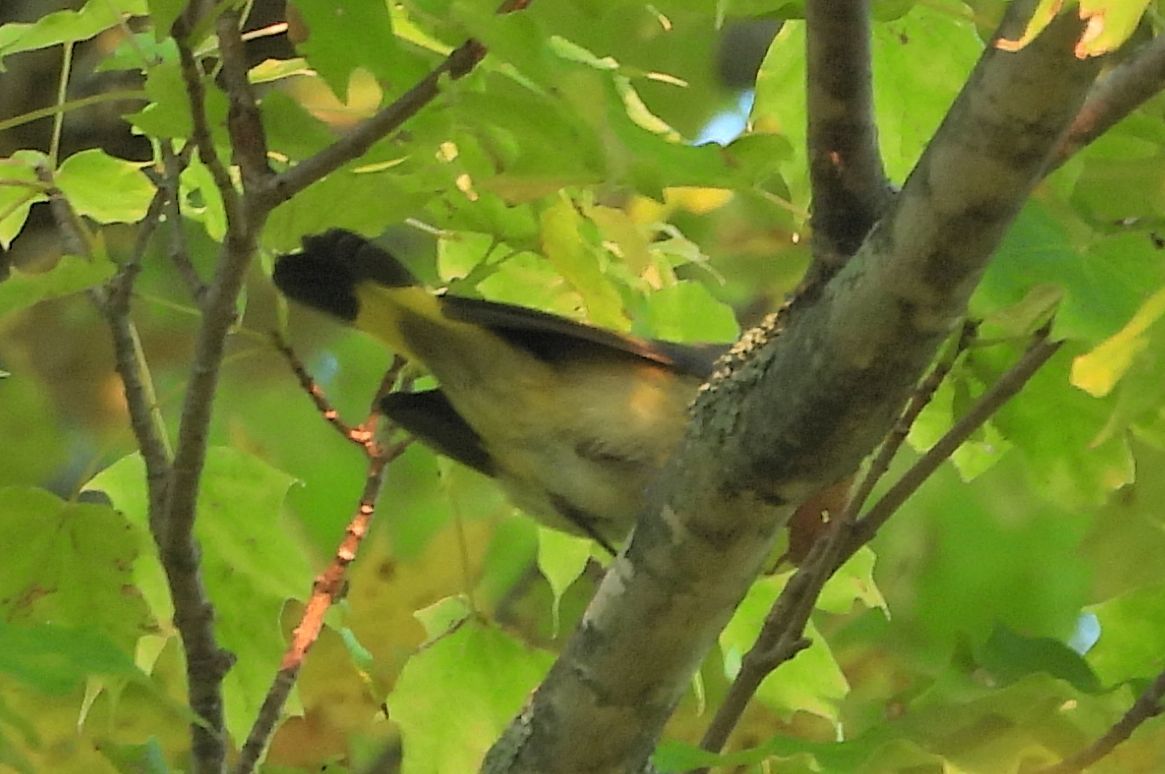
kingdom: Animalia
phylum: Chordata
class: Aves
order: Passeriformes
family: Parulidae
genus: Setophaga
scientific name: Setophaga ruticilla
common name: American redstart
